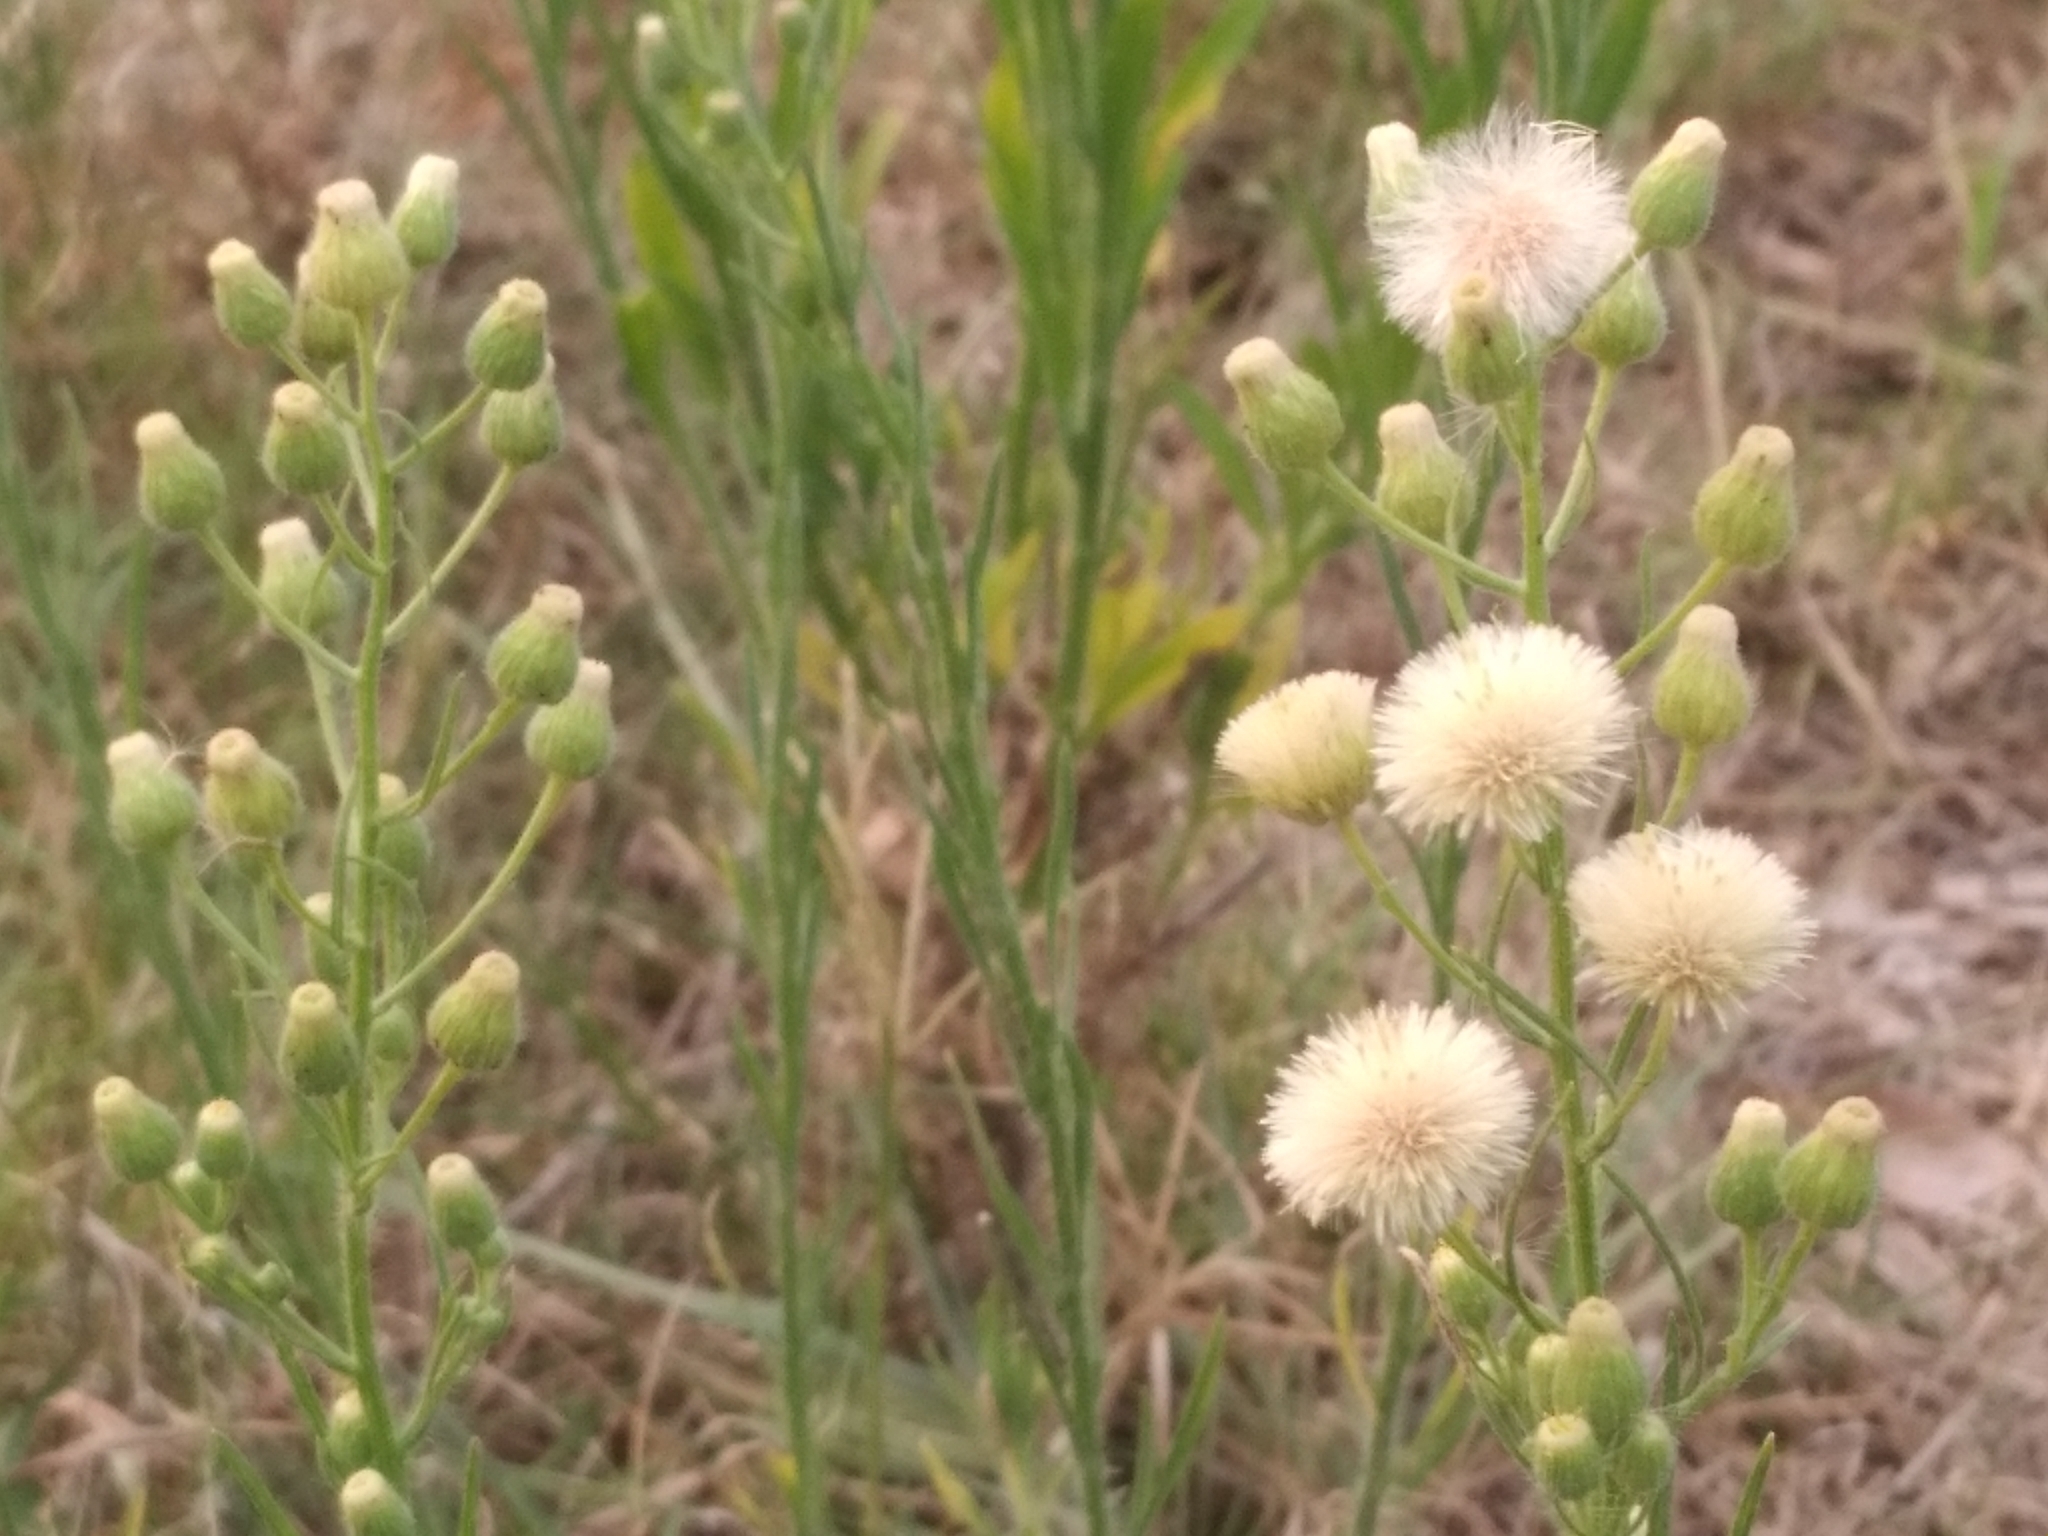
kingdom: Plantae
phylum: Tracheophyta
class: Magnoliopsida
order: Asterales
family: Asteraceae
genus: Erigeron
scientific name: Erigeron bonariensis
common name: Argentine fleabane
